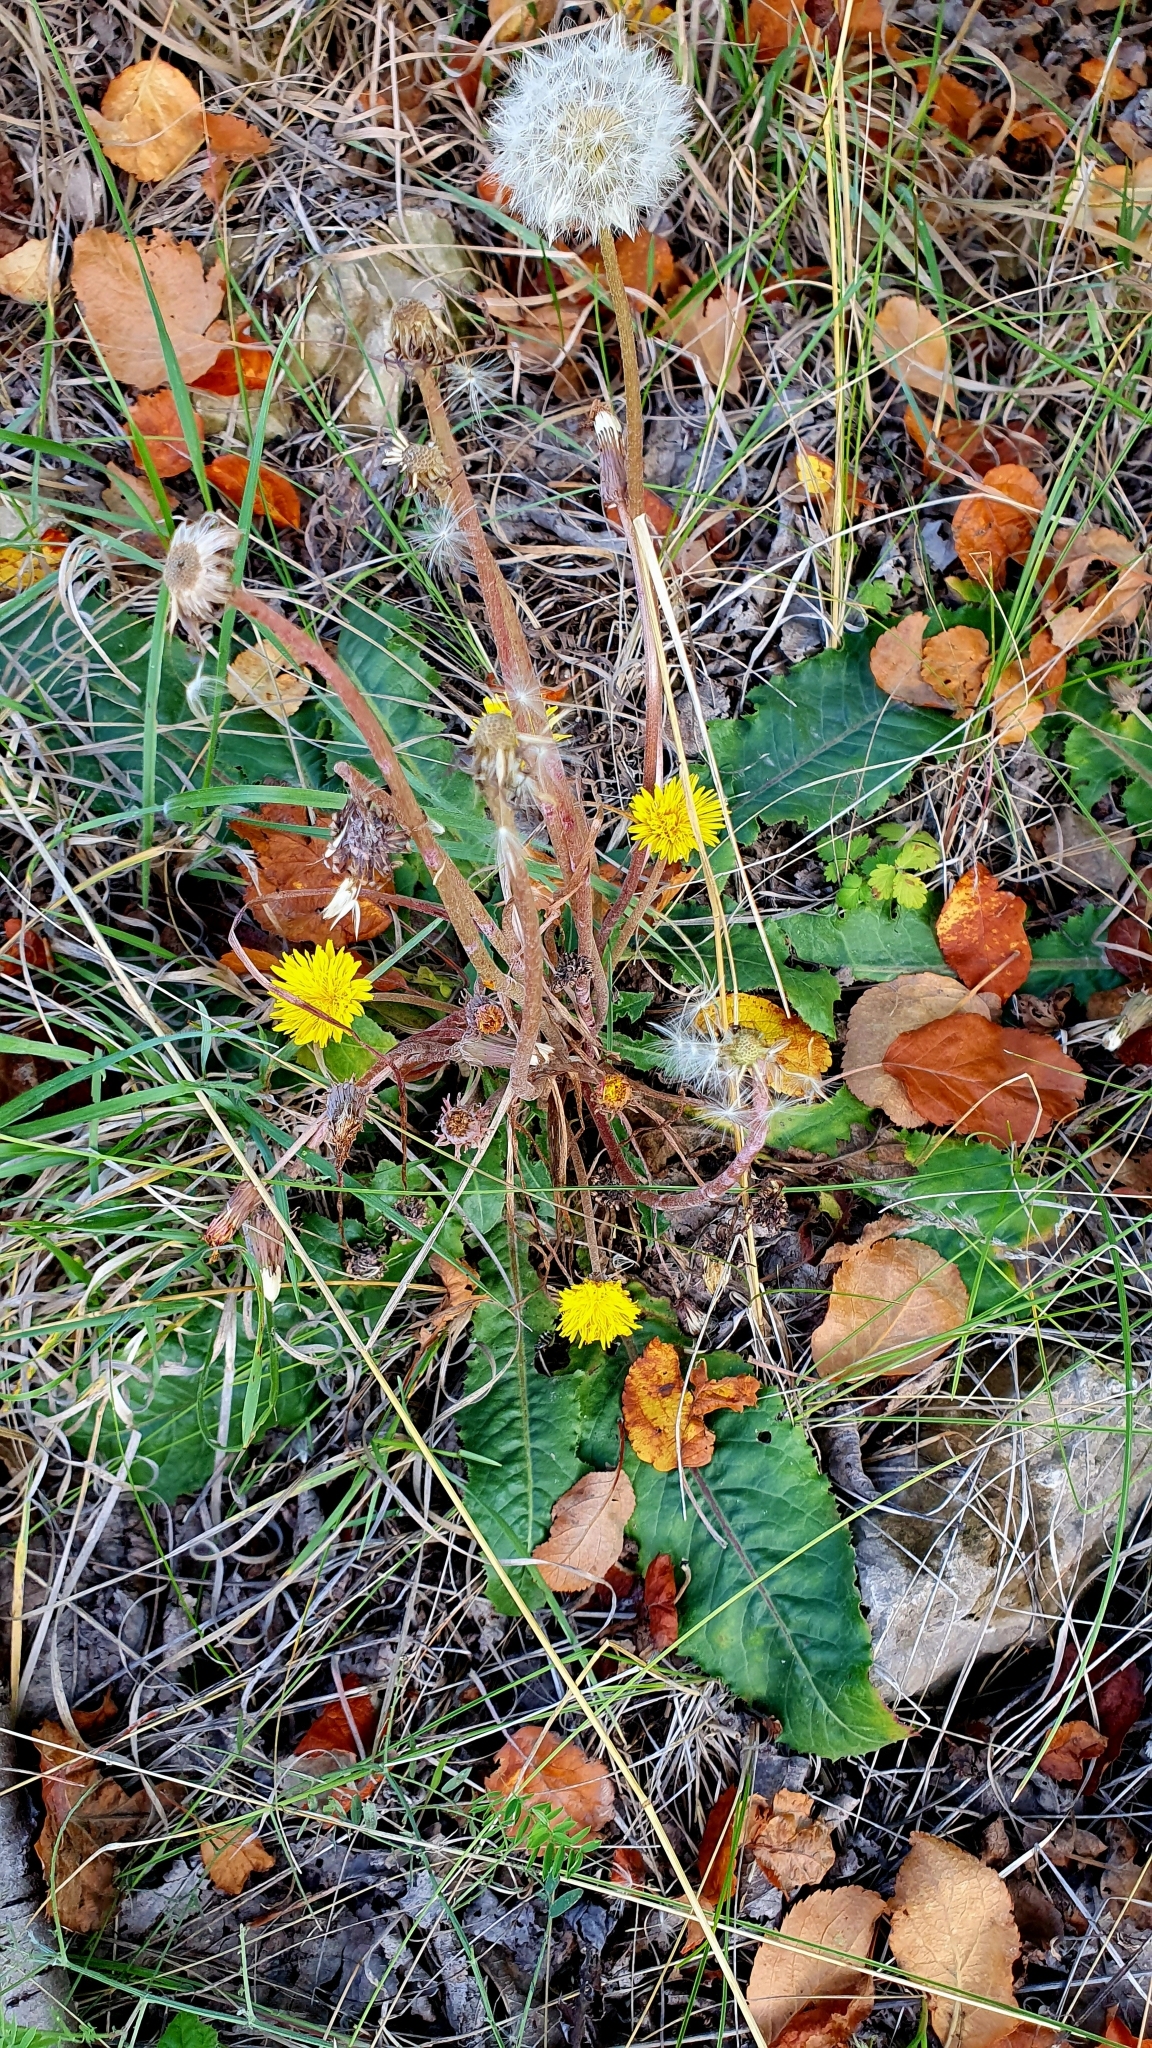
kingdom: Plantae
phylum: Tracheophyta
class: Magnoliopsida
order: Asterales
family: Asteraceae
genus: Taraxacum
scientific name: Taraxacum serotinum
